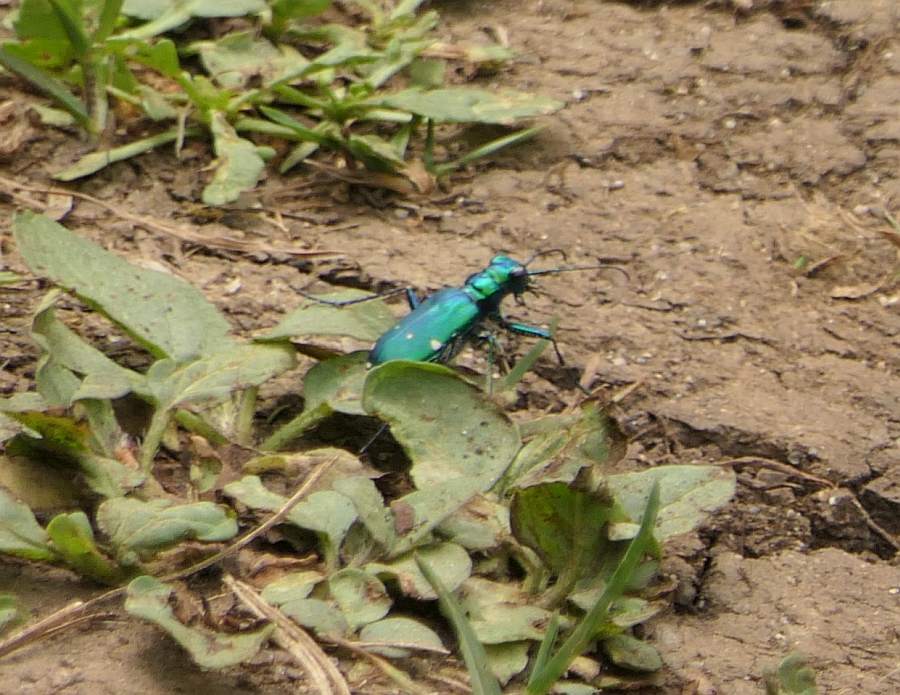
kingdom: Animalia
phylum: Arthropoda
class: Insecta
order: Coleoptera
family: Carabidae
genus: Cicindela
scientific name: Cicindela sexguttata
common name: Six-spotted tiger beetle
